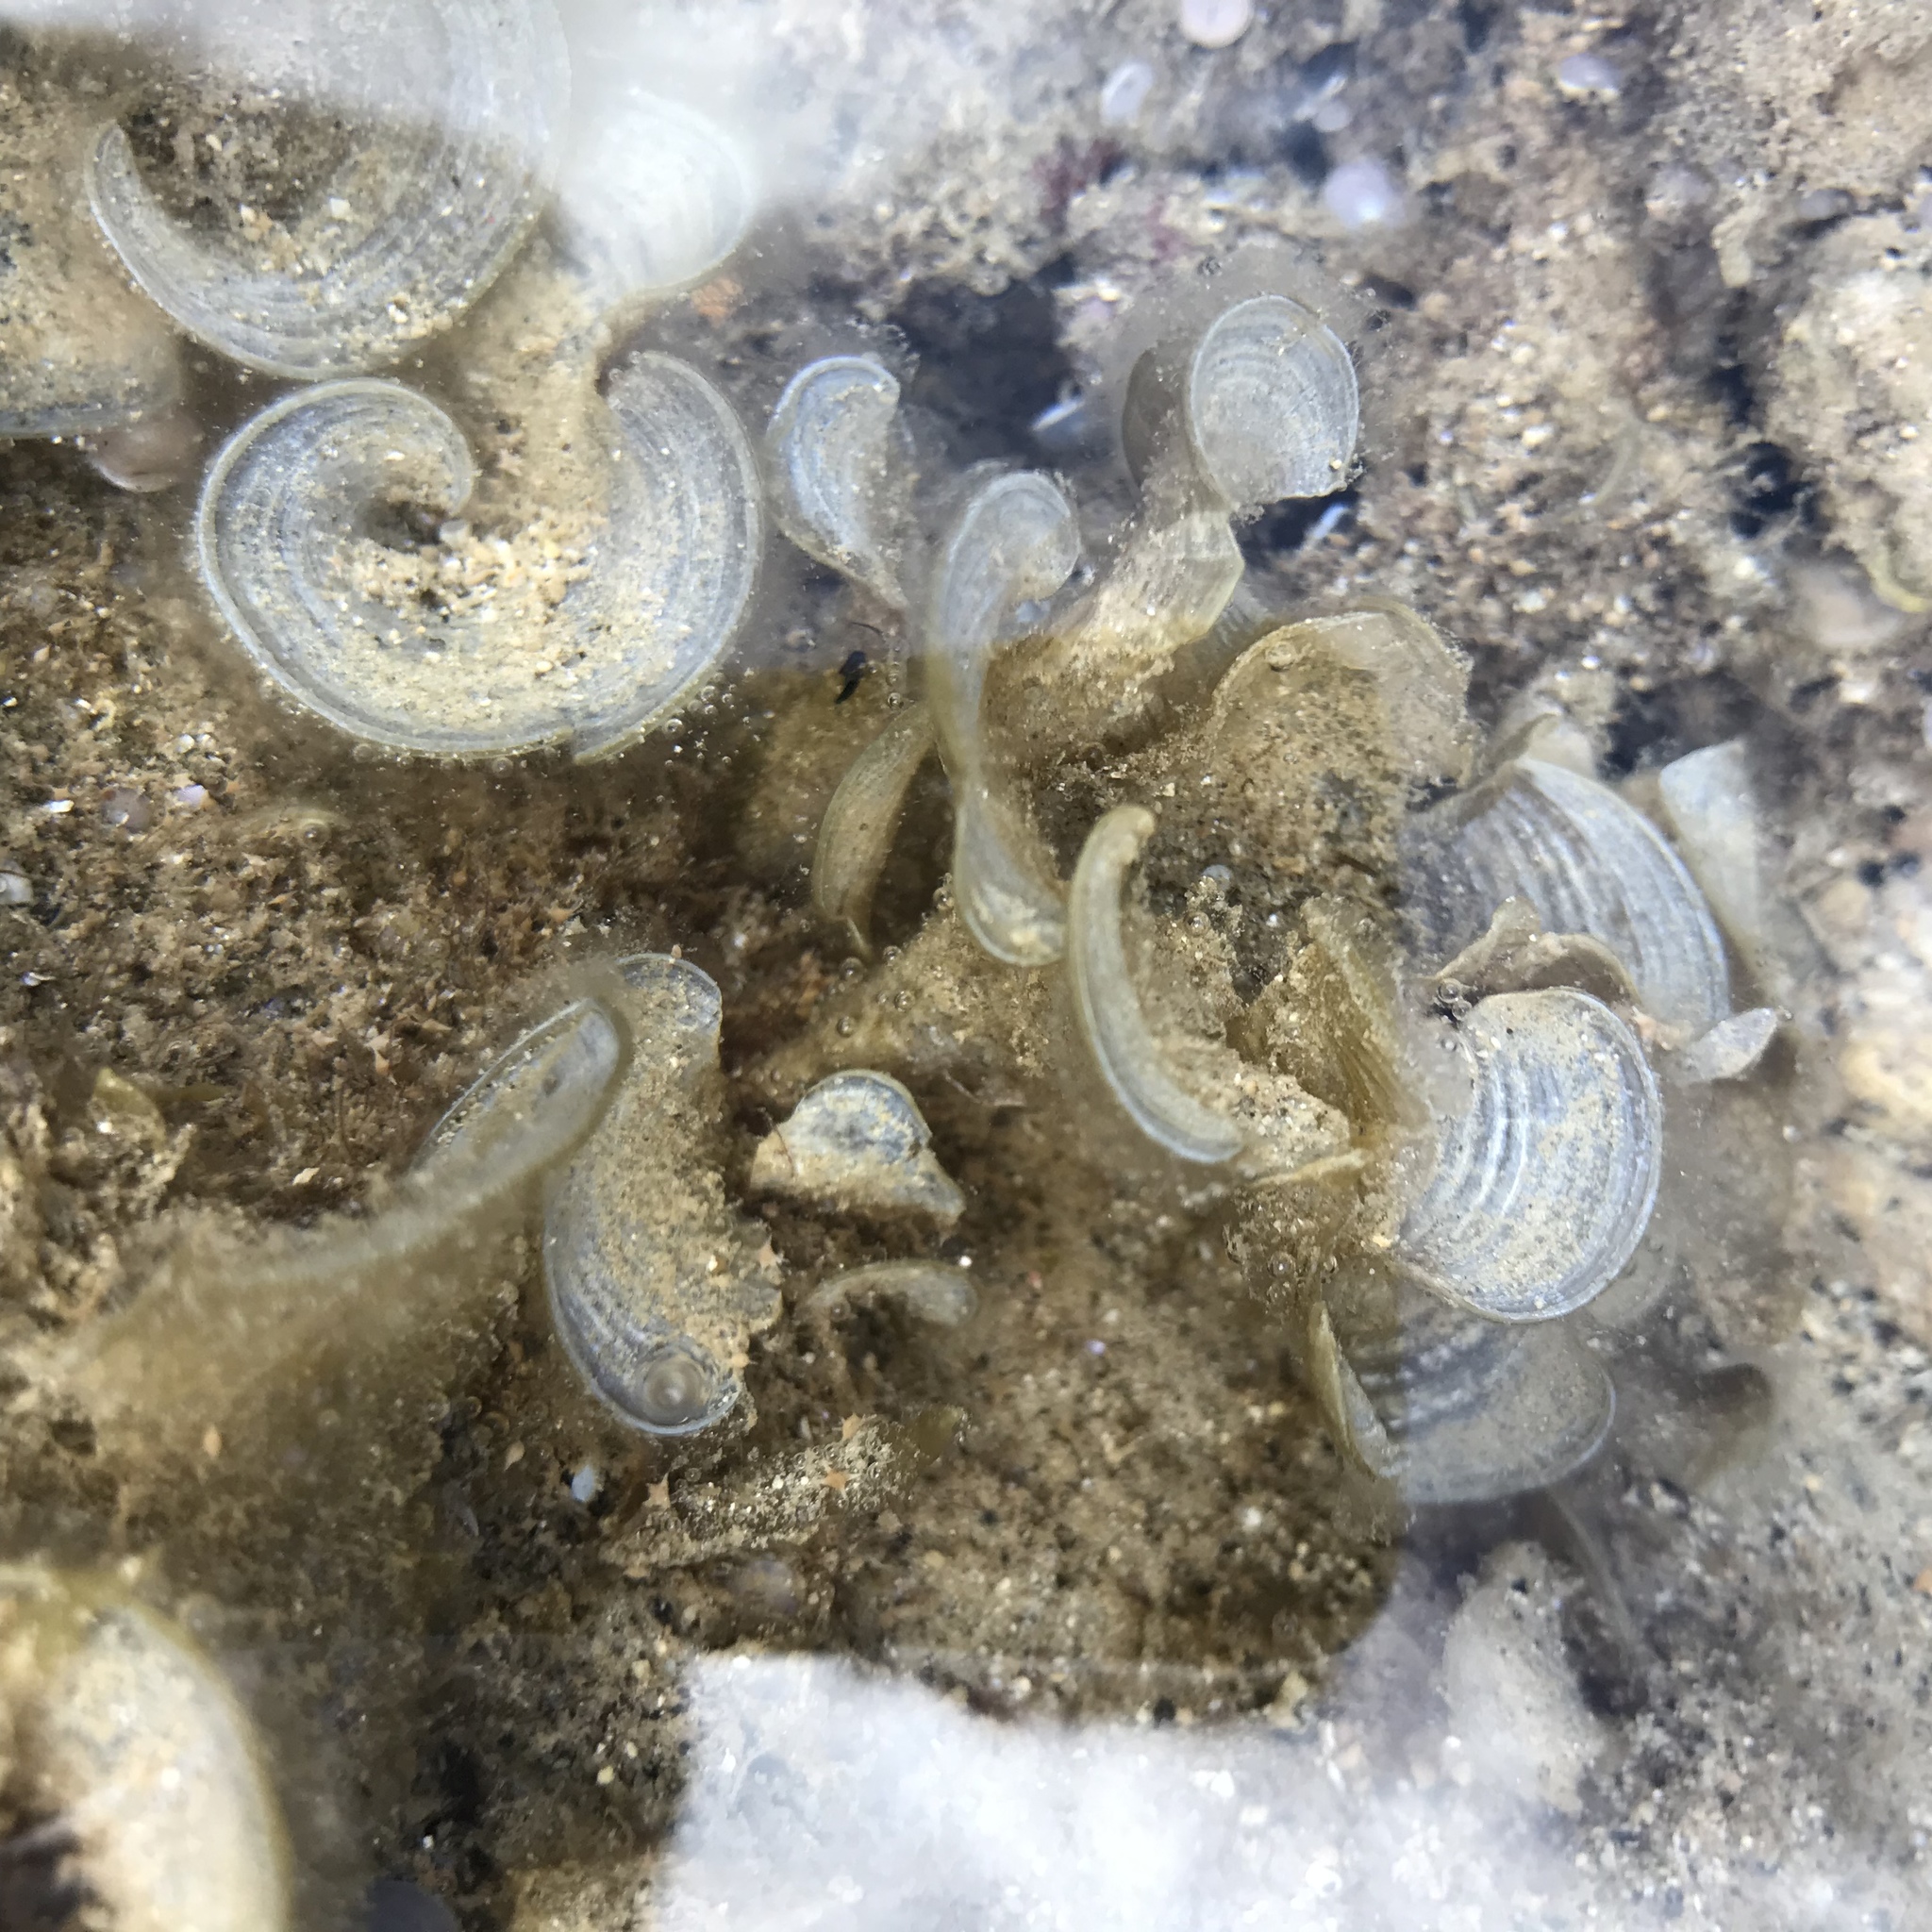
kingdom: Chromista
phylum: Ochrophyta
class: Phaeophyceae
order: Dictyotales
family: Dictyotaceae
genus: Padina
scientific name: Padina sanctae-crucis
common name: White scroll algae
